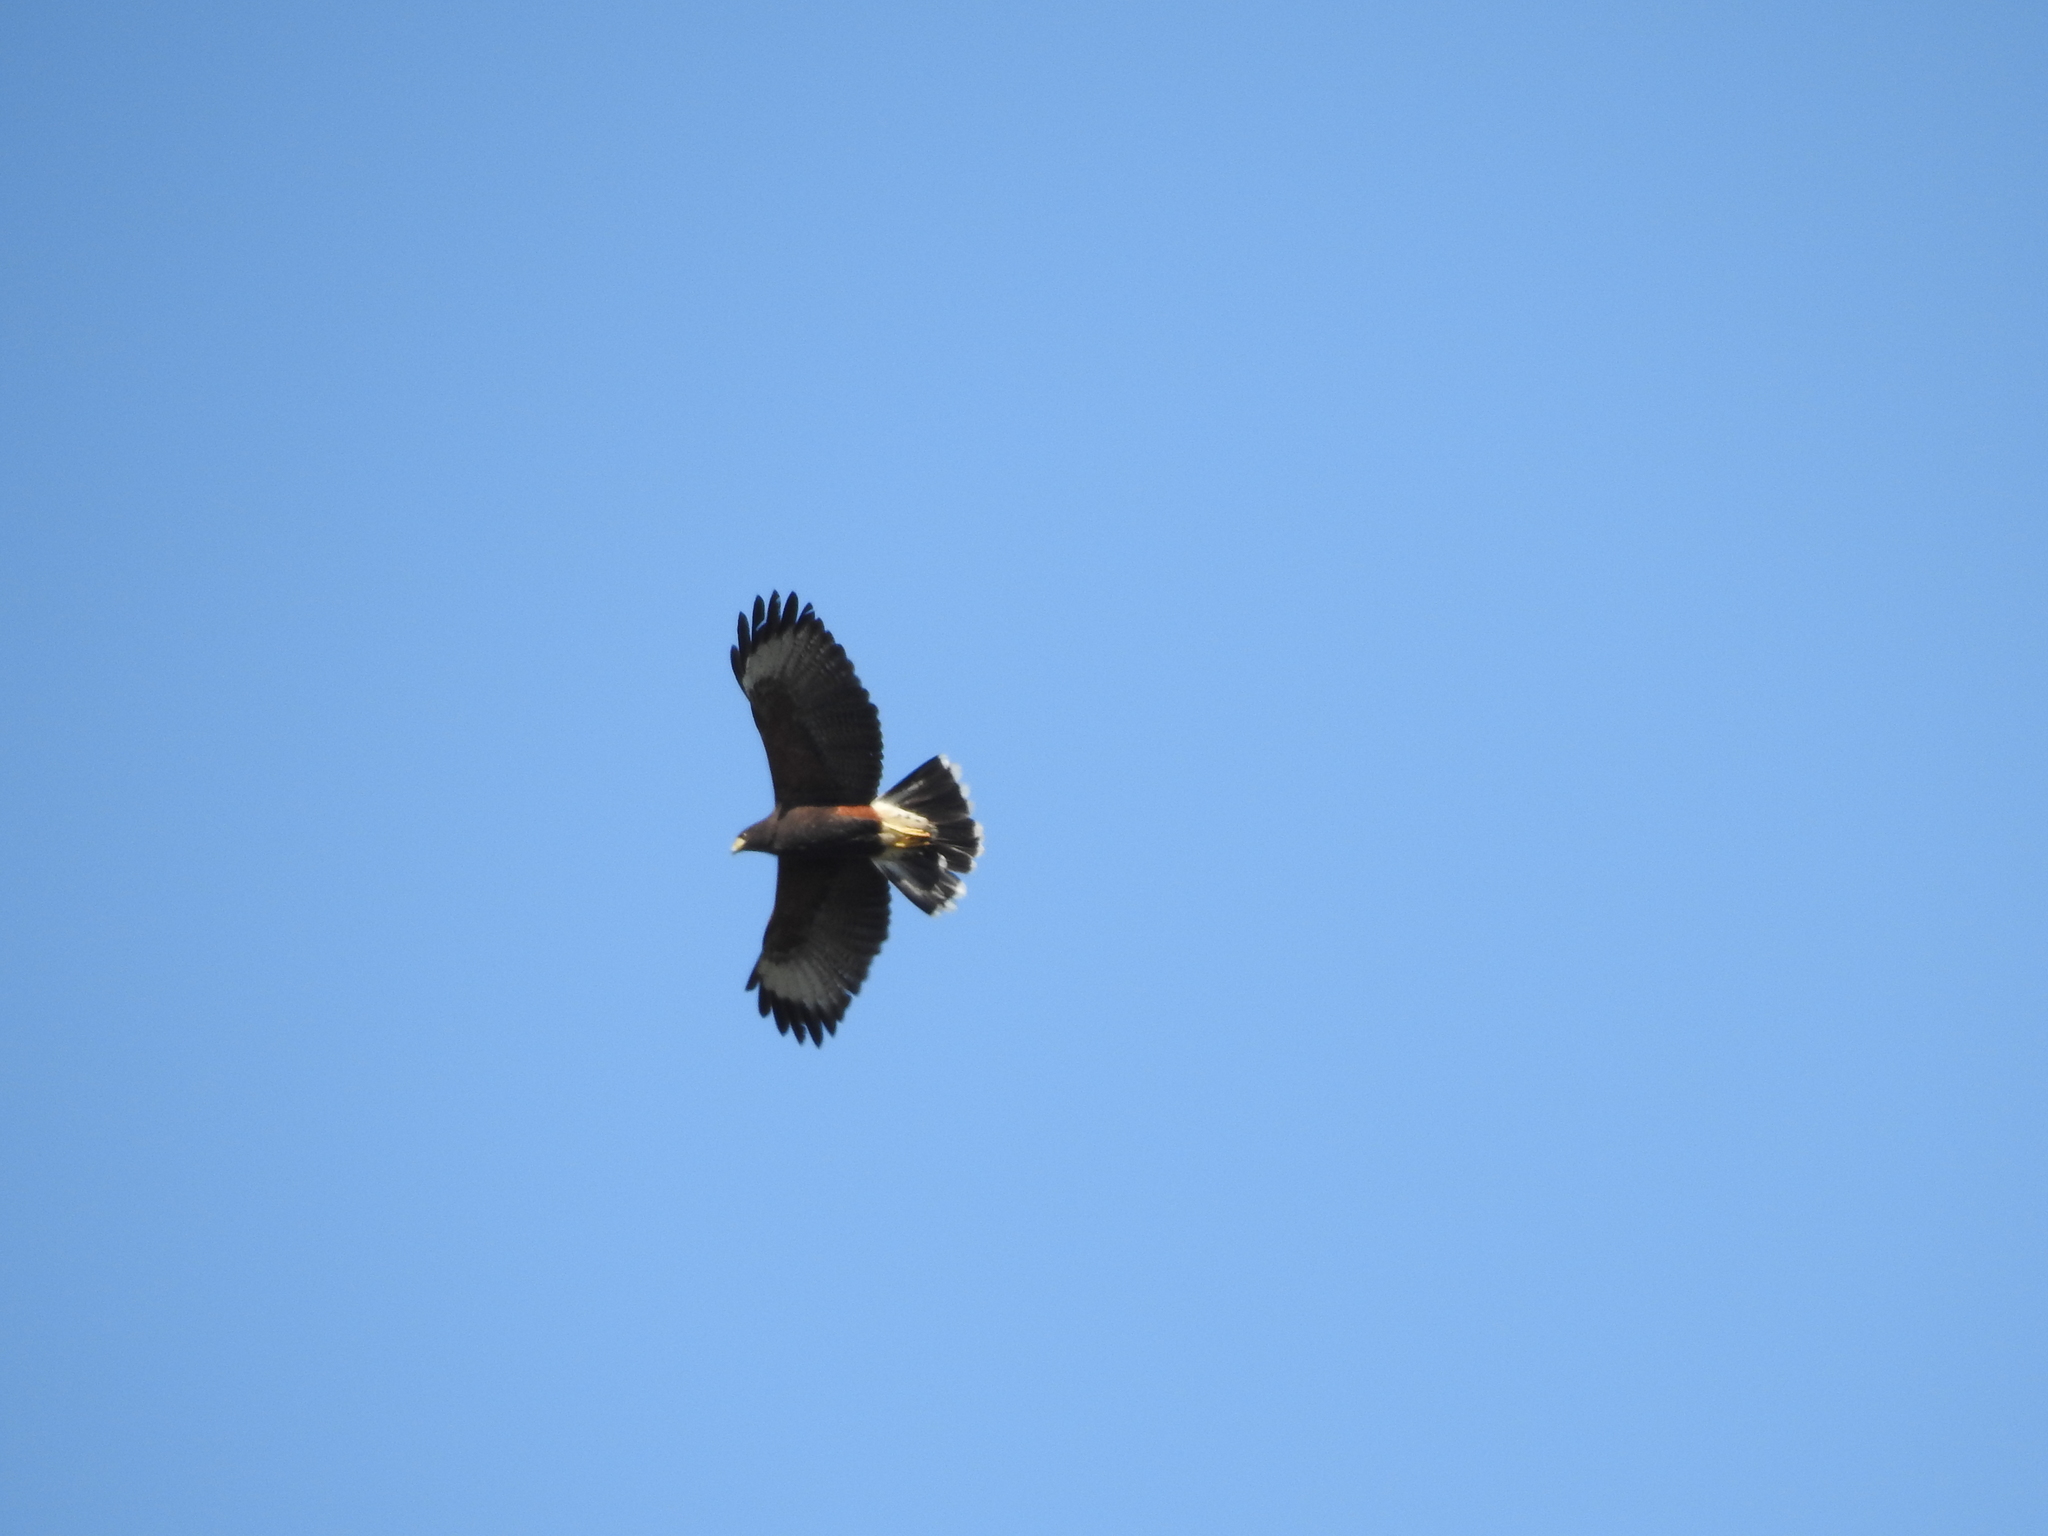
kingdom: Animalia
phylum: Chordata
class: Aves
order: Accipitriformes
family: Accipitridae
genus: Parabuteo
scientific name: Parabuteo unicinctus
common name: Harris's hawk
